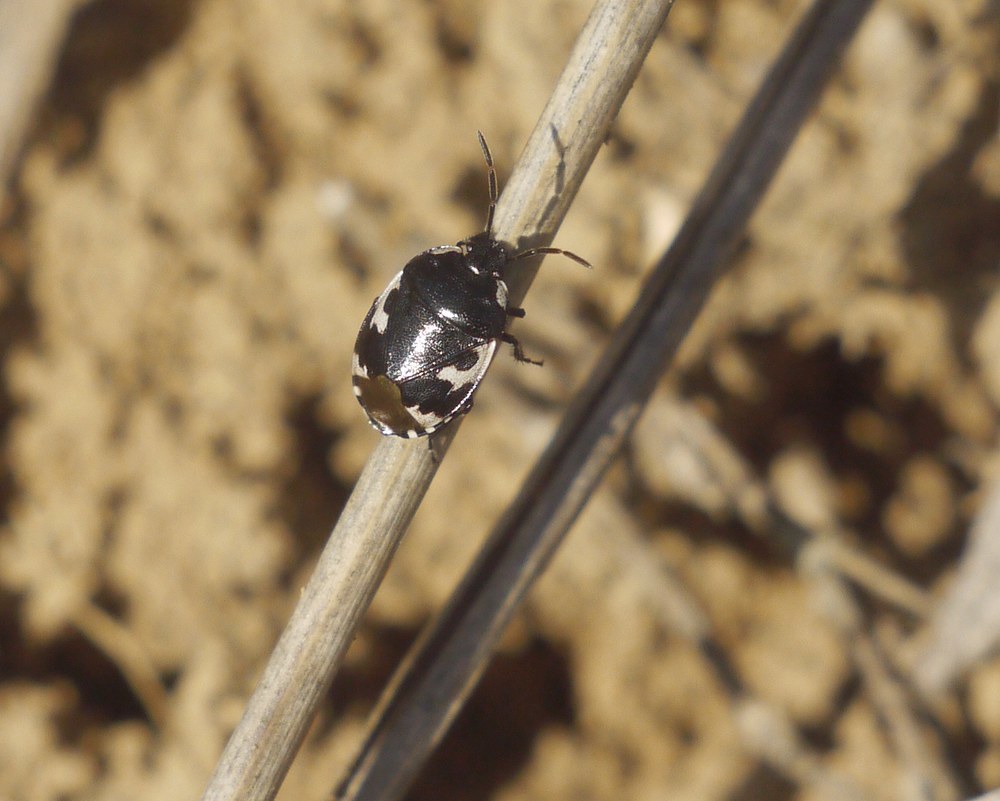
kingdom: Animalia
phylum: Arthropoda
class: Insecta
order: Hemiptera
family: Cydnidae
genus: Tritomegas
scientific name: Tritomegas bicolor
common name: Pied shieldbug
